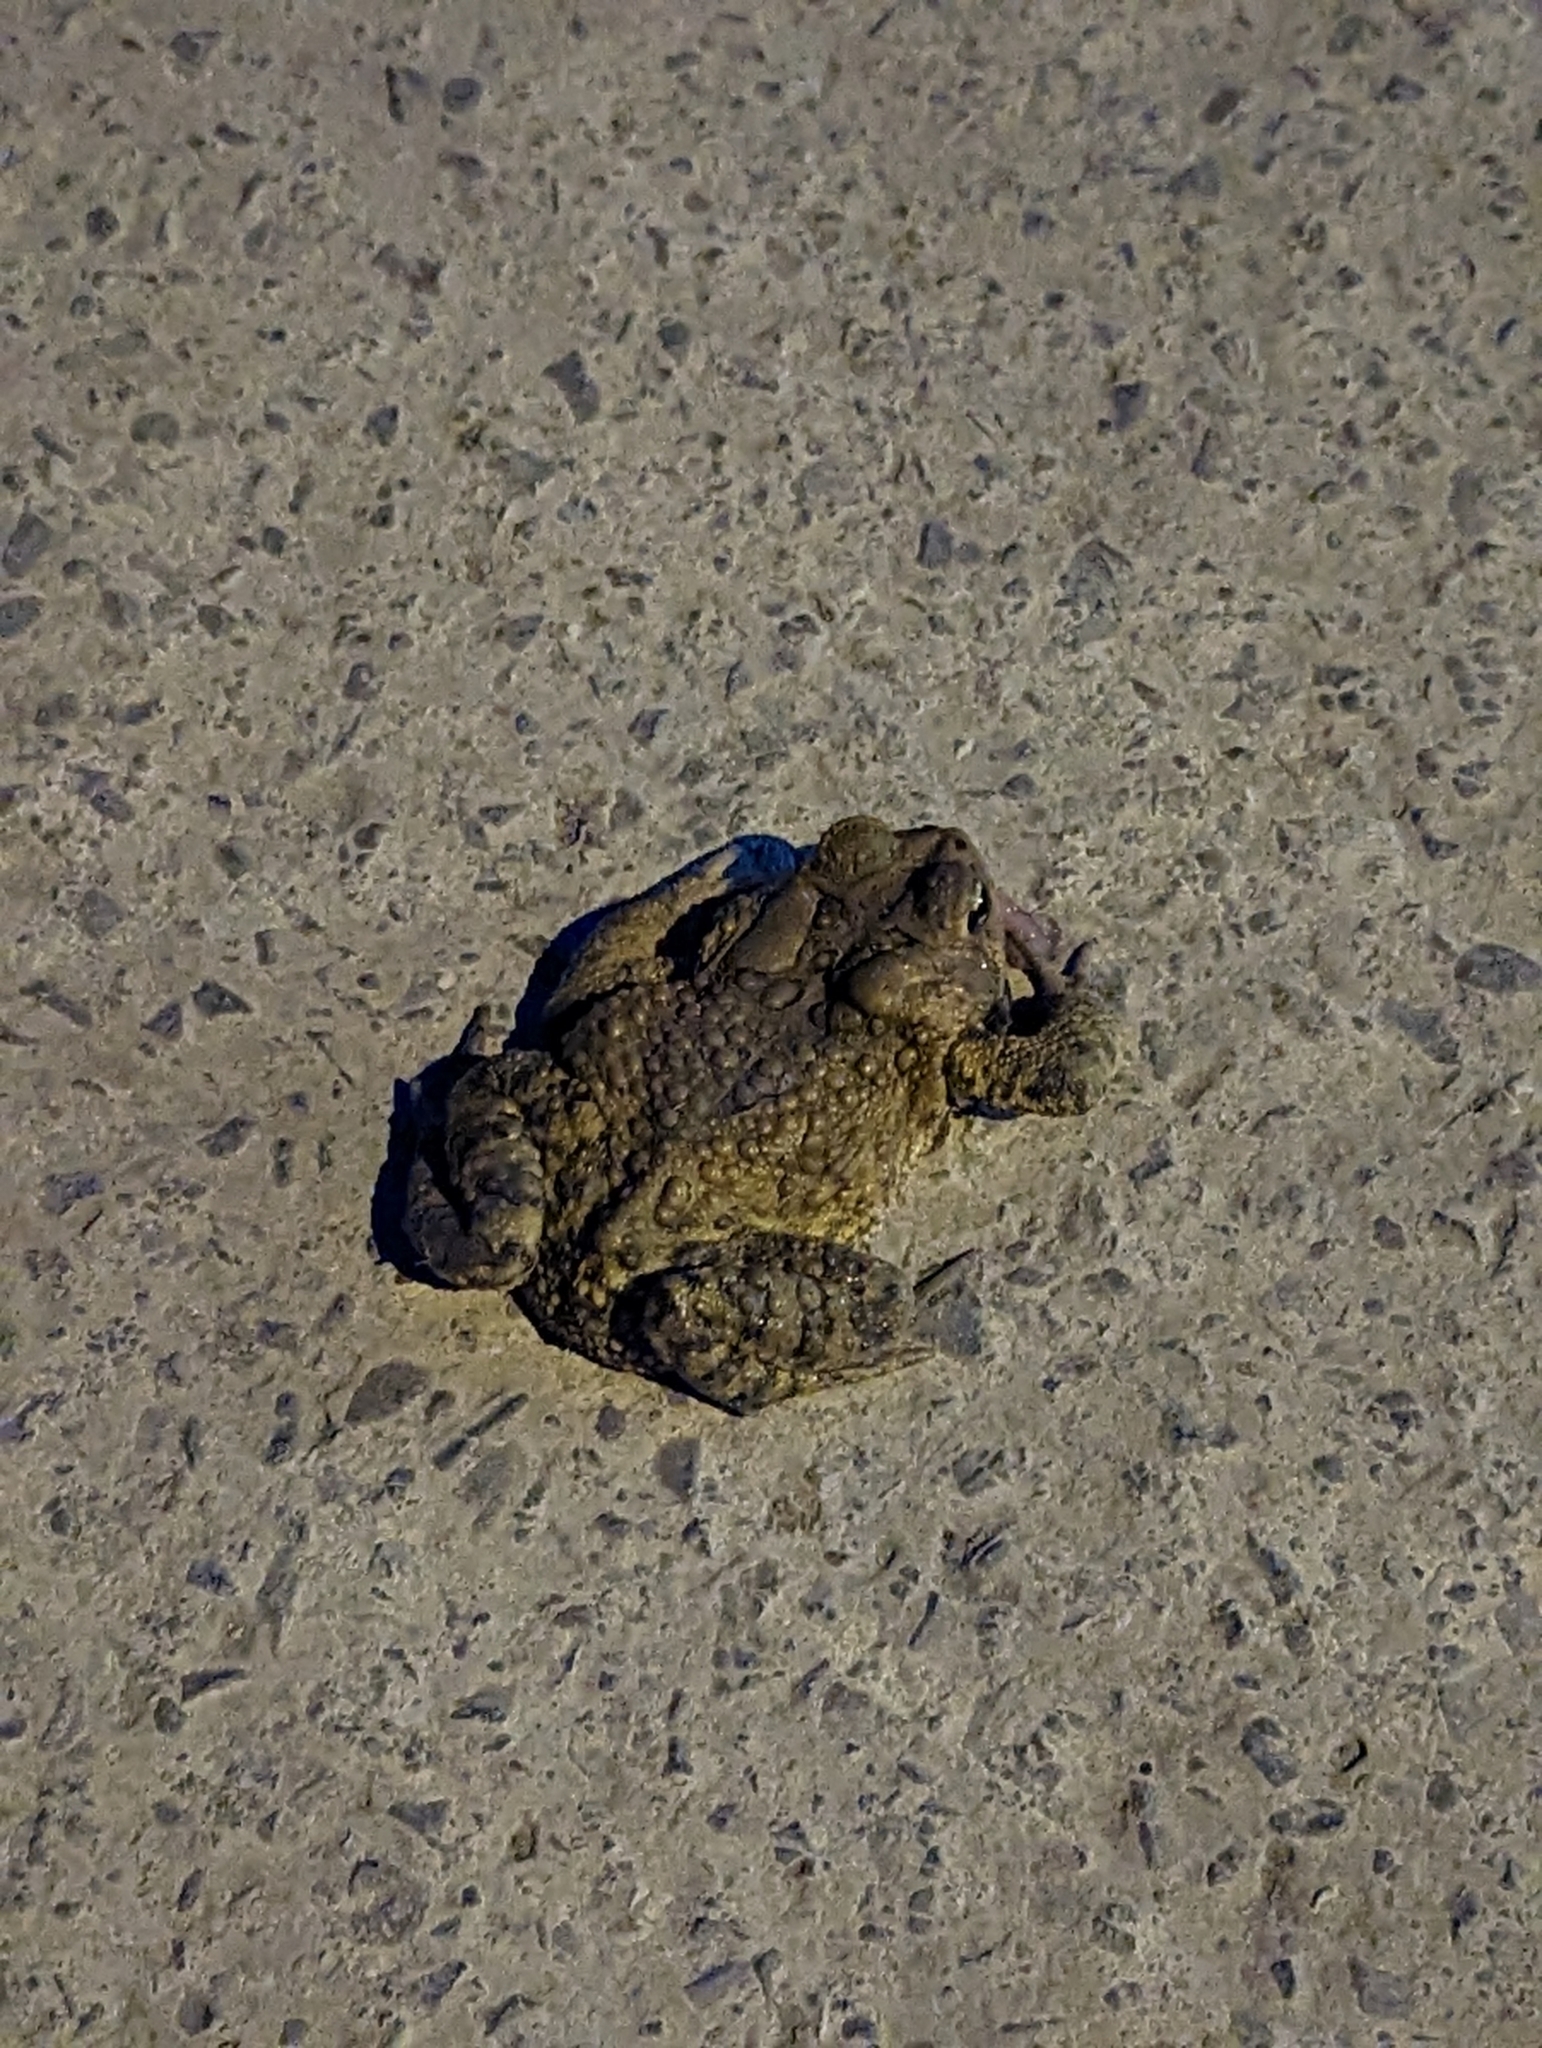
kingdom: Animalia
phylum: Chordata
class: Amphibia
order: Anura
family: Bufonidae
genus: Anaxyrus
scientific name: Anaxyrus americanus
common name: American toad
